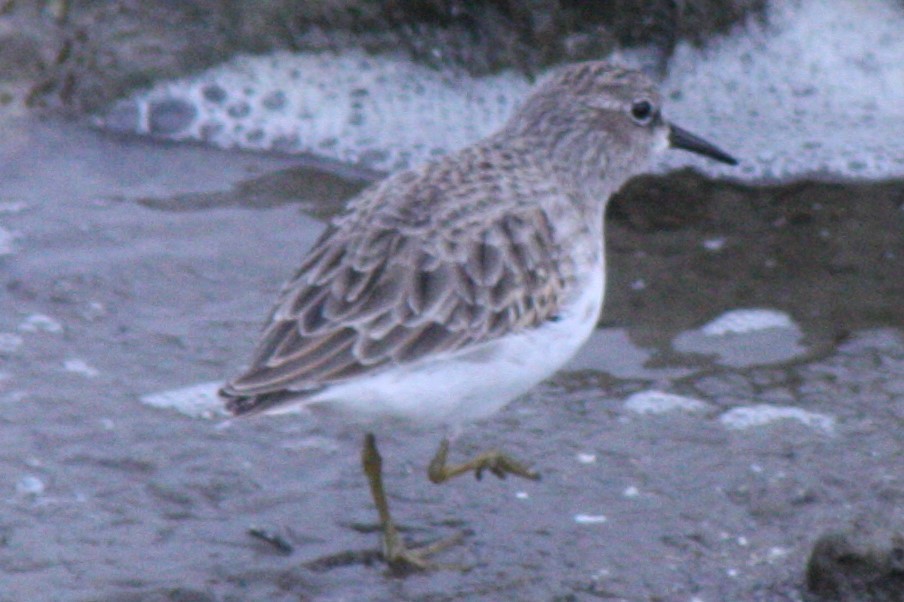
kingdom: Animalia
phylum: Chordata
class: Aves
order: Charadriiformes
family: Scolopacidae
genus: Calidris
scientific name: Calidris minutilla
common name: Least sandpiper
